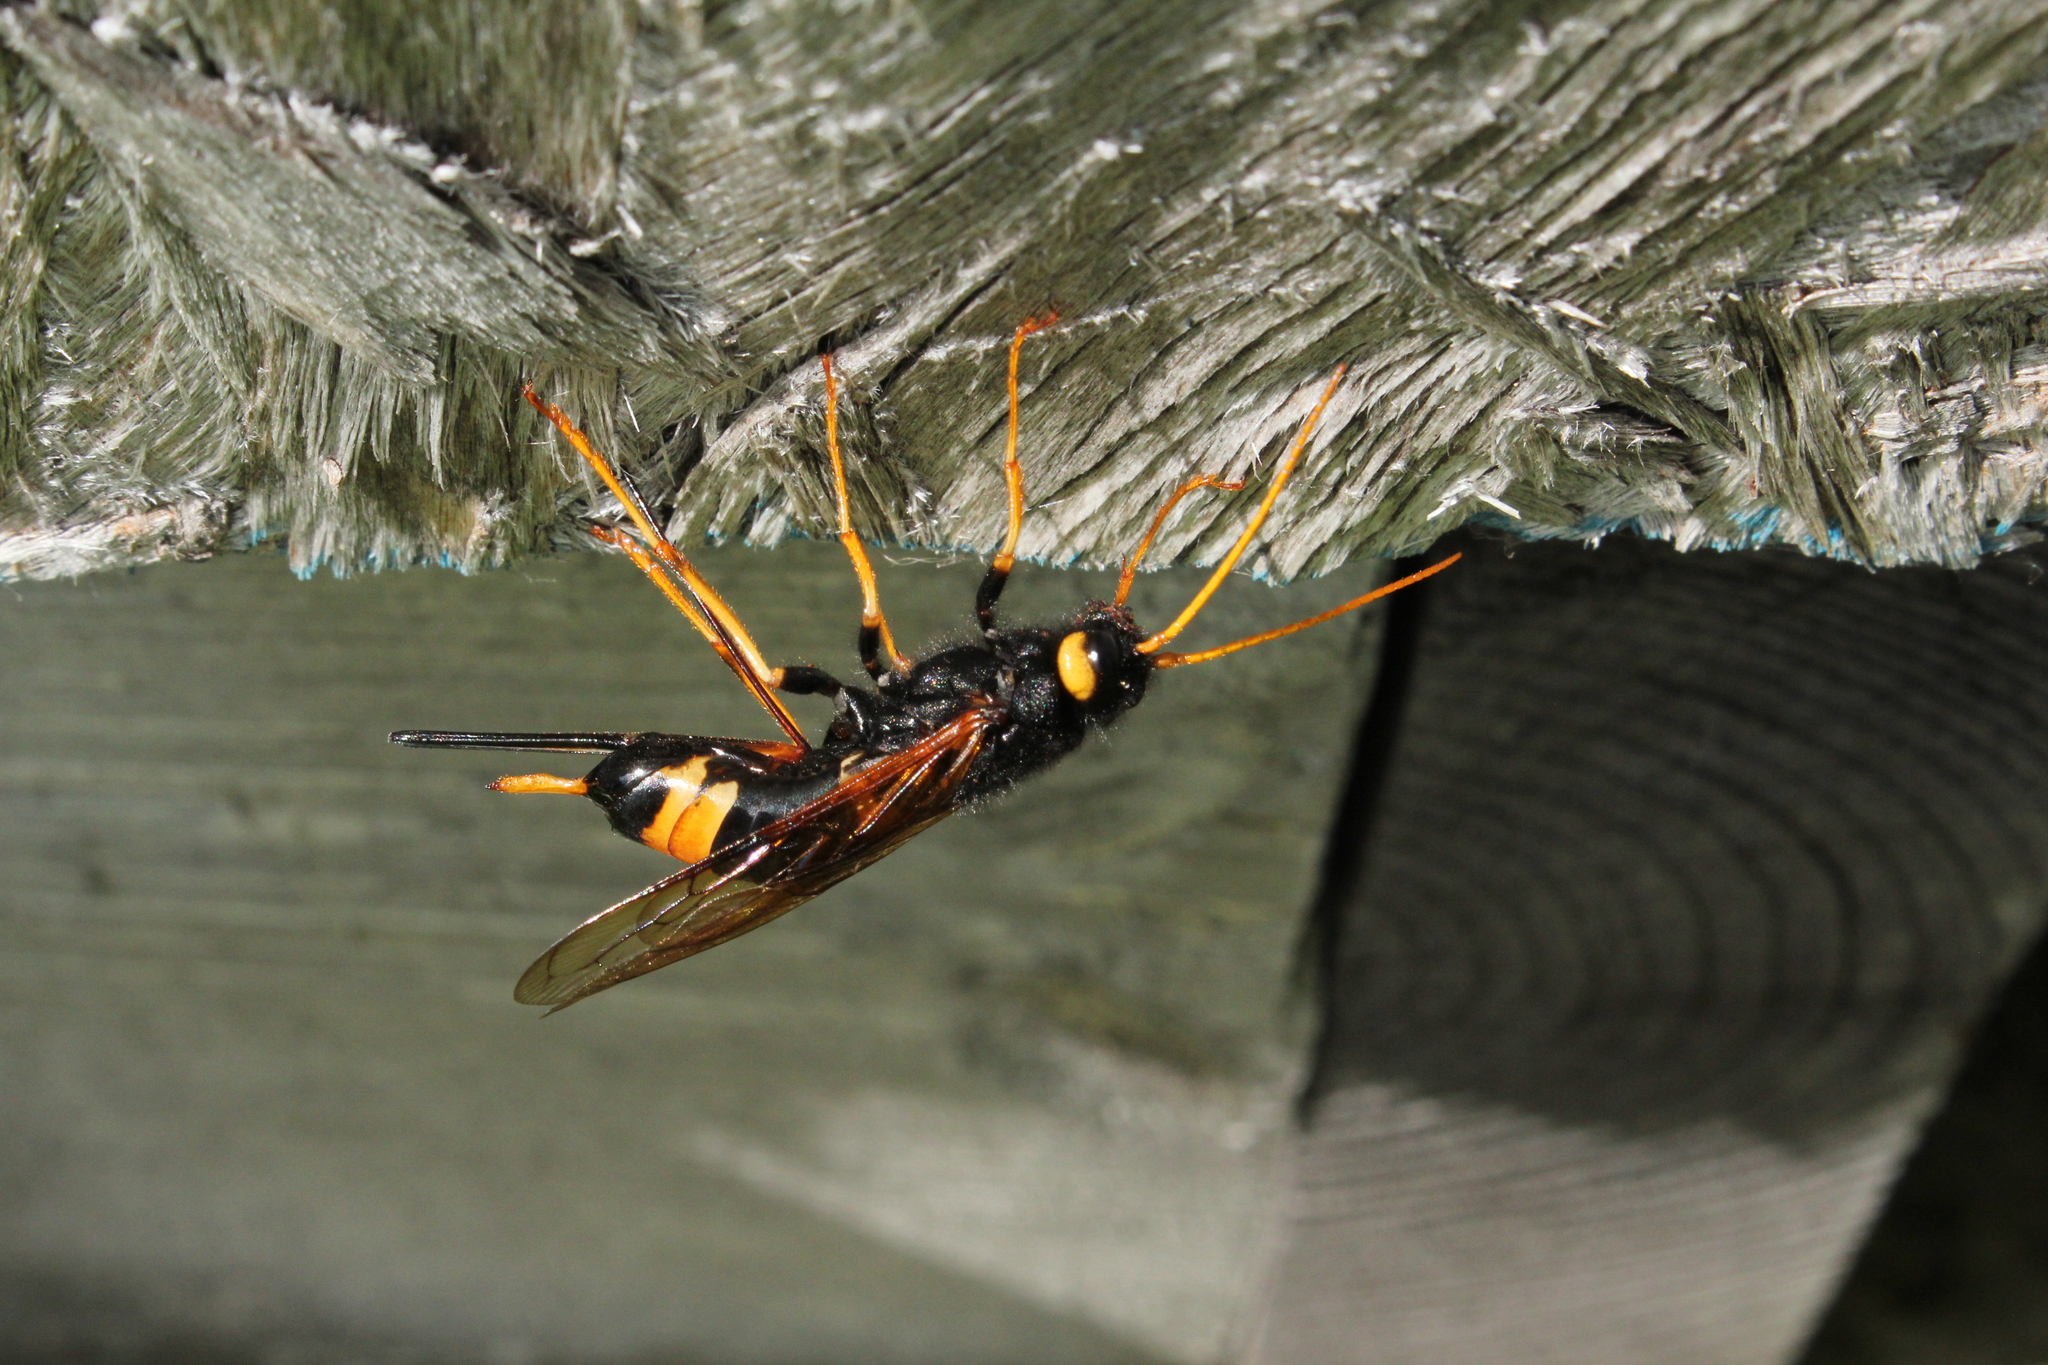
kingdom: Animalia
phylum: Arthropoda
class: Insecta
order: Hymenoptera
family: Siricidae
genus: Urocerus
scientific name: Urocerus flavicornis
